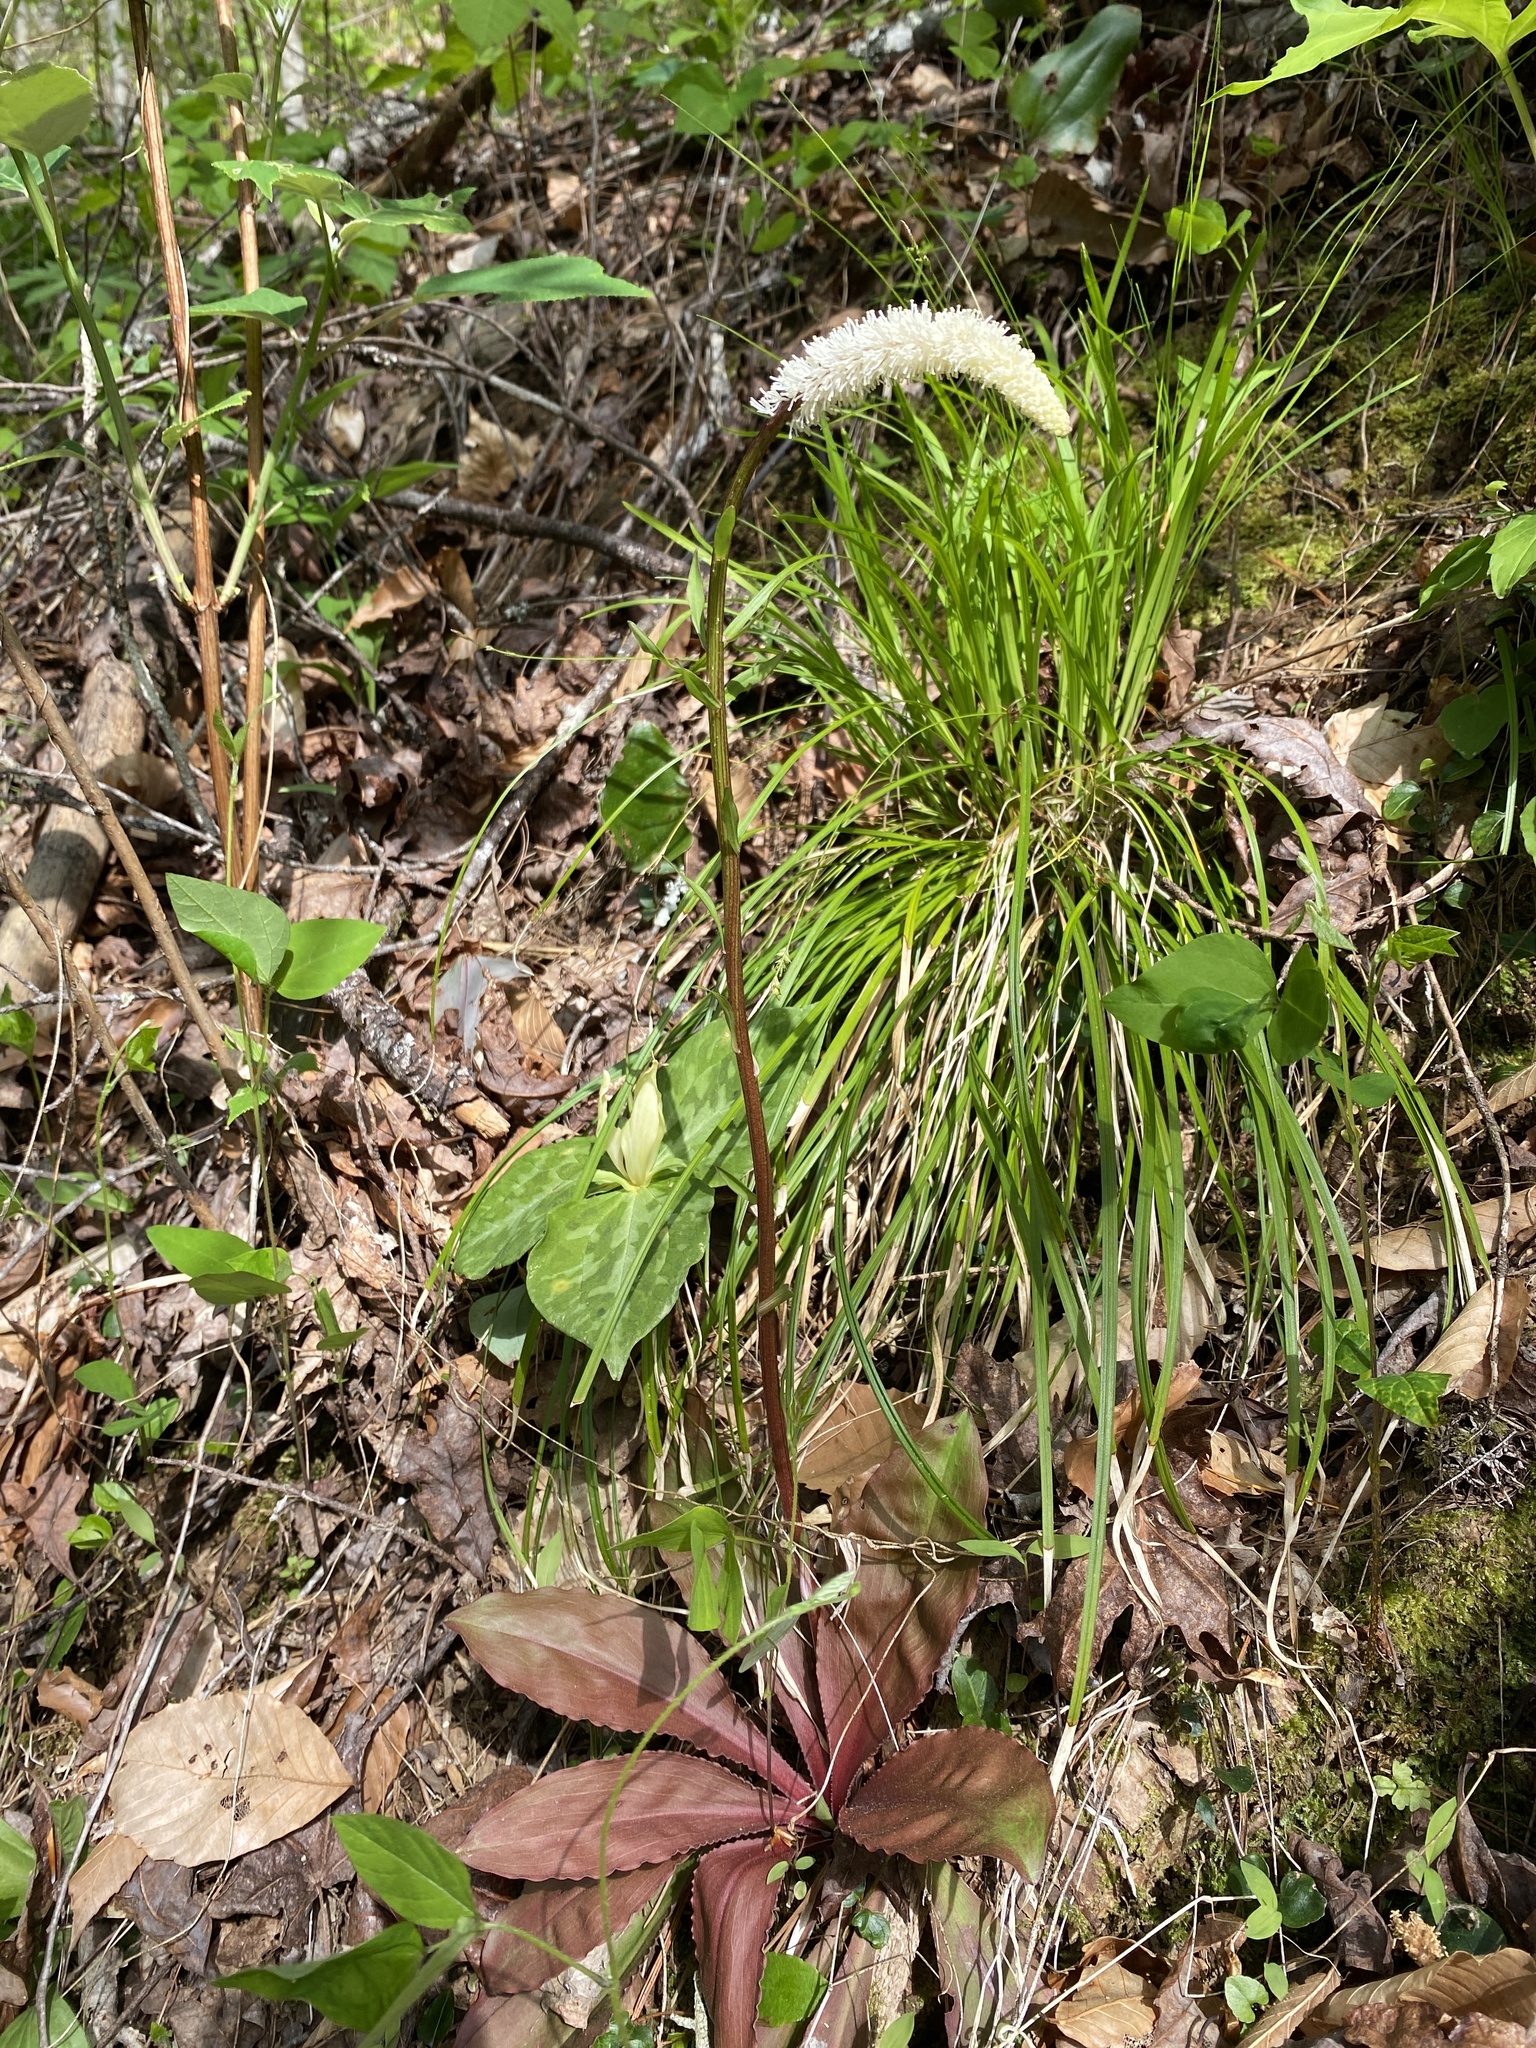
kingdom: Plantae
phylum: Tracheophyta
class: Liliopsida
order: Liliales
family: Melanthiaceae
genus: Chamaelirium
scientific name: Chamaelirium luteum
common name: Fairy-wand
